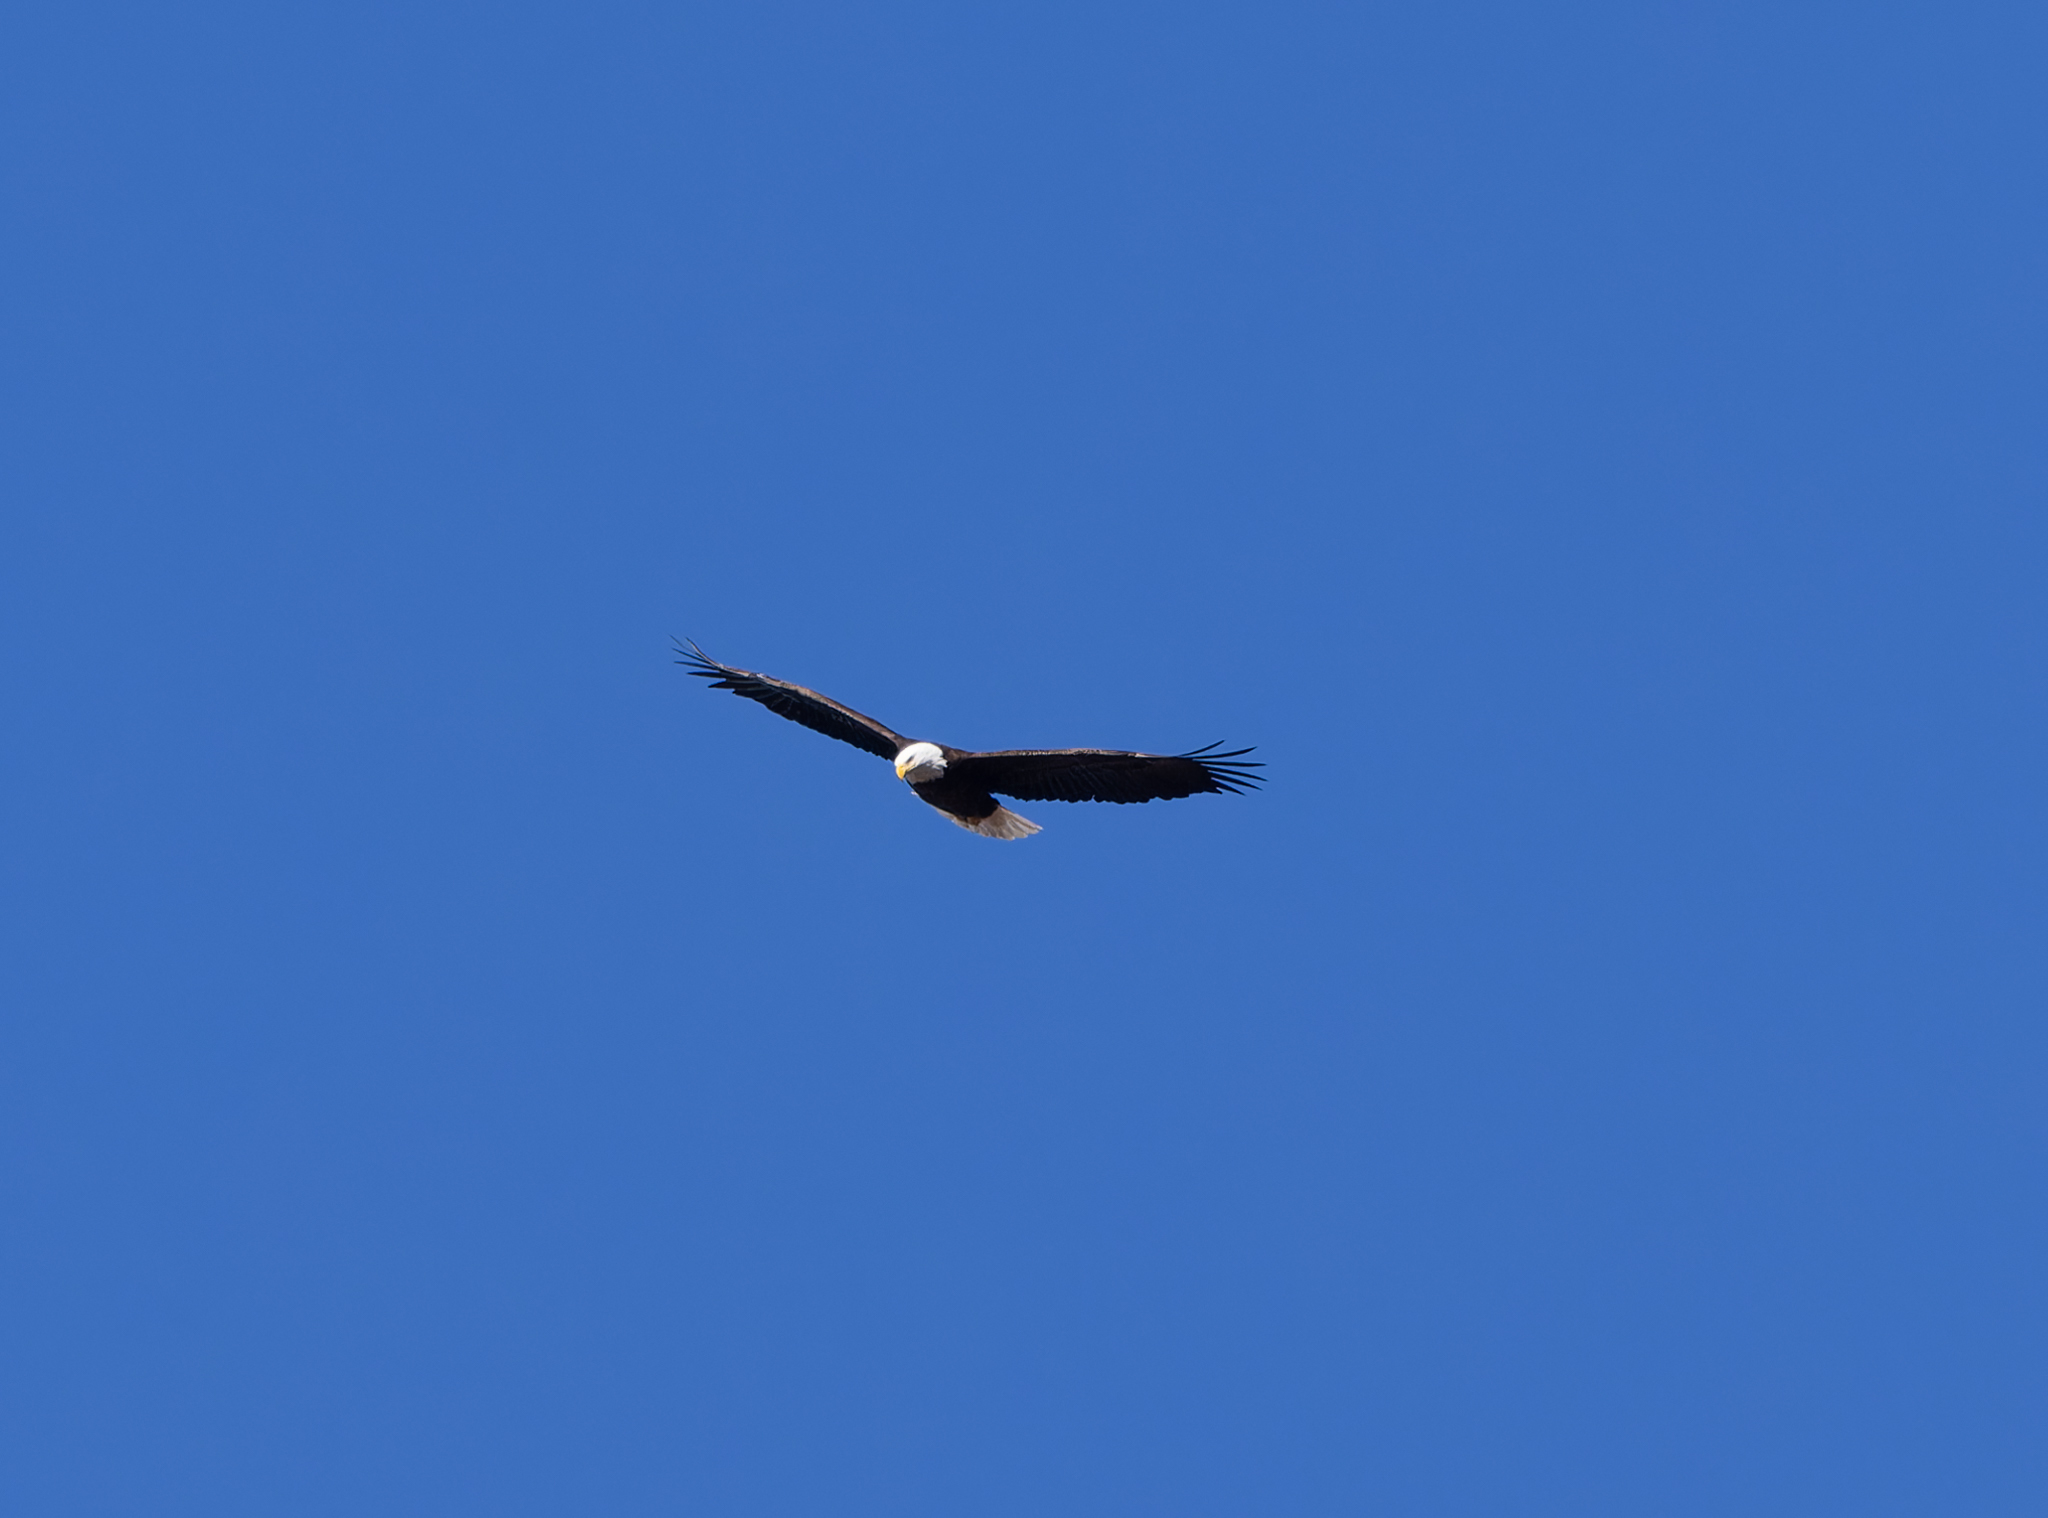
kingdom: Animalia
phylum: Chordata
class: Aves
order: Accipitriformes
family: Accipitridae
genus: Haliaeetus
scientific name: Haliaeetus leucocephalus
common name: Bald eagle
